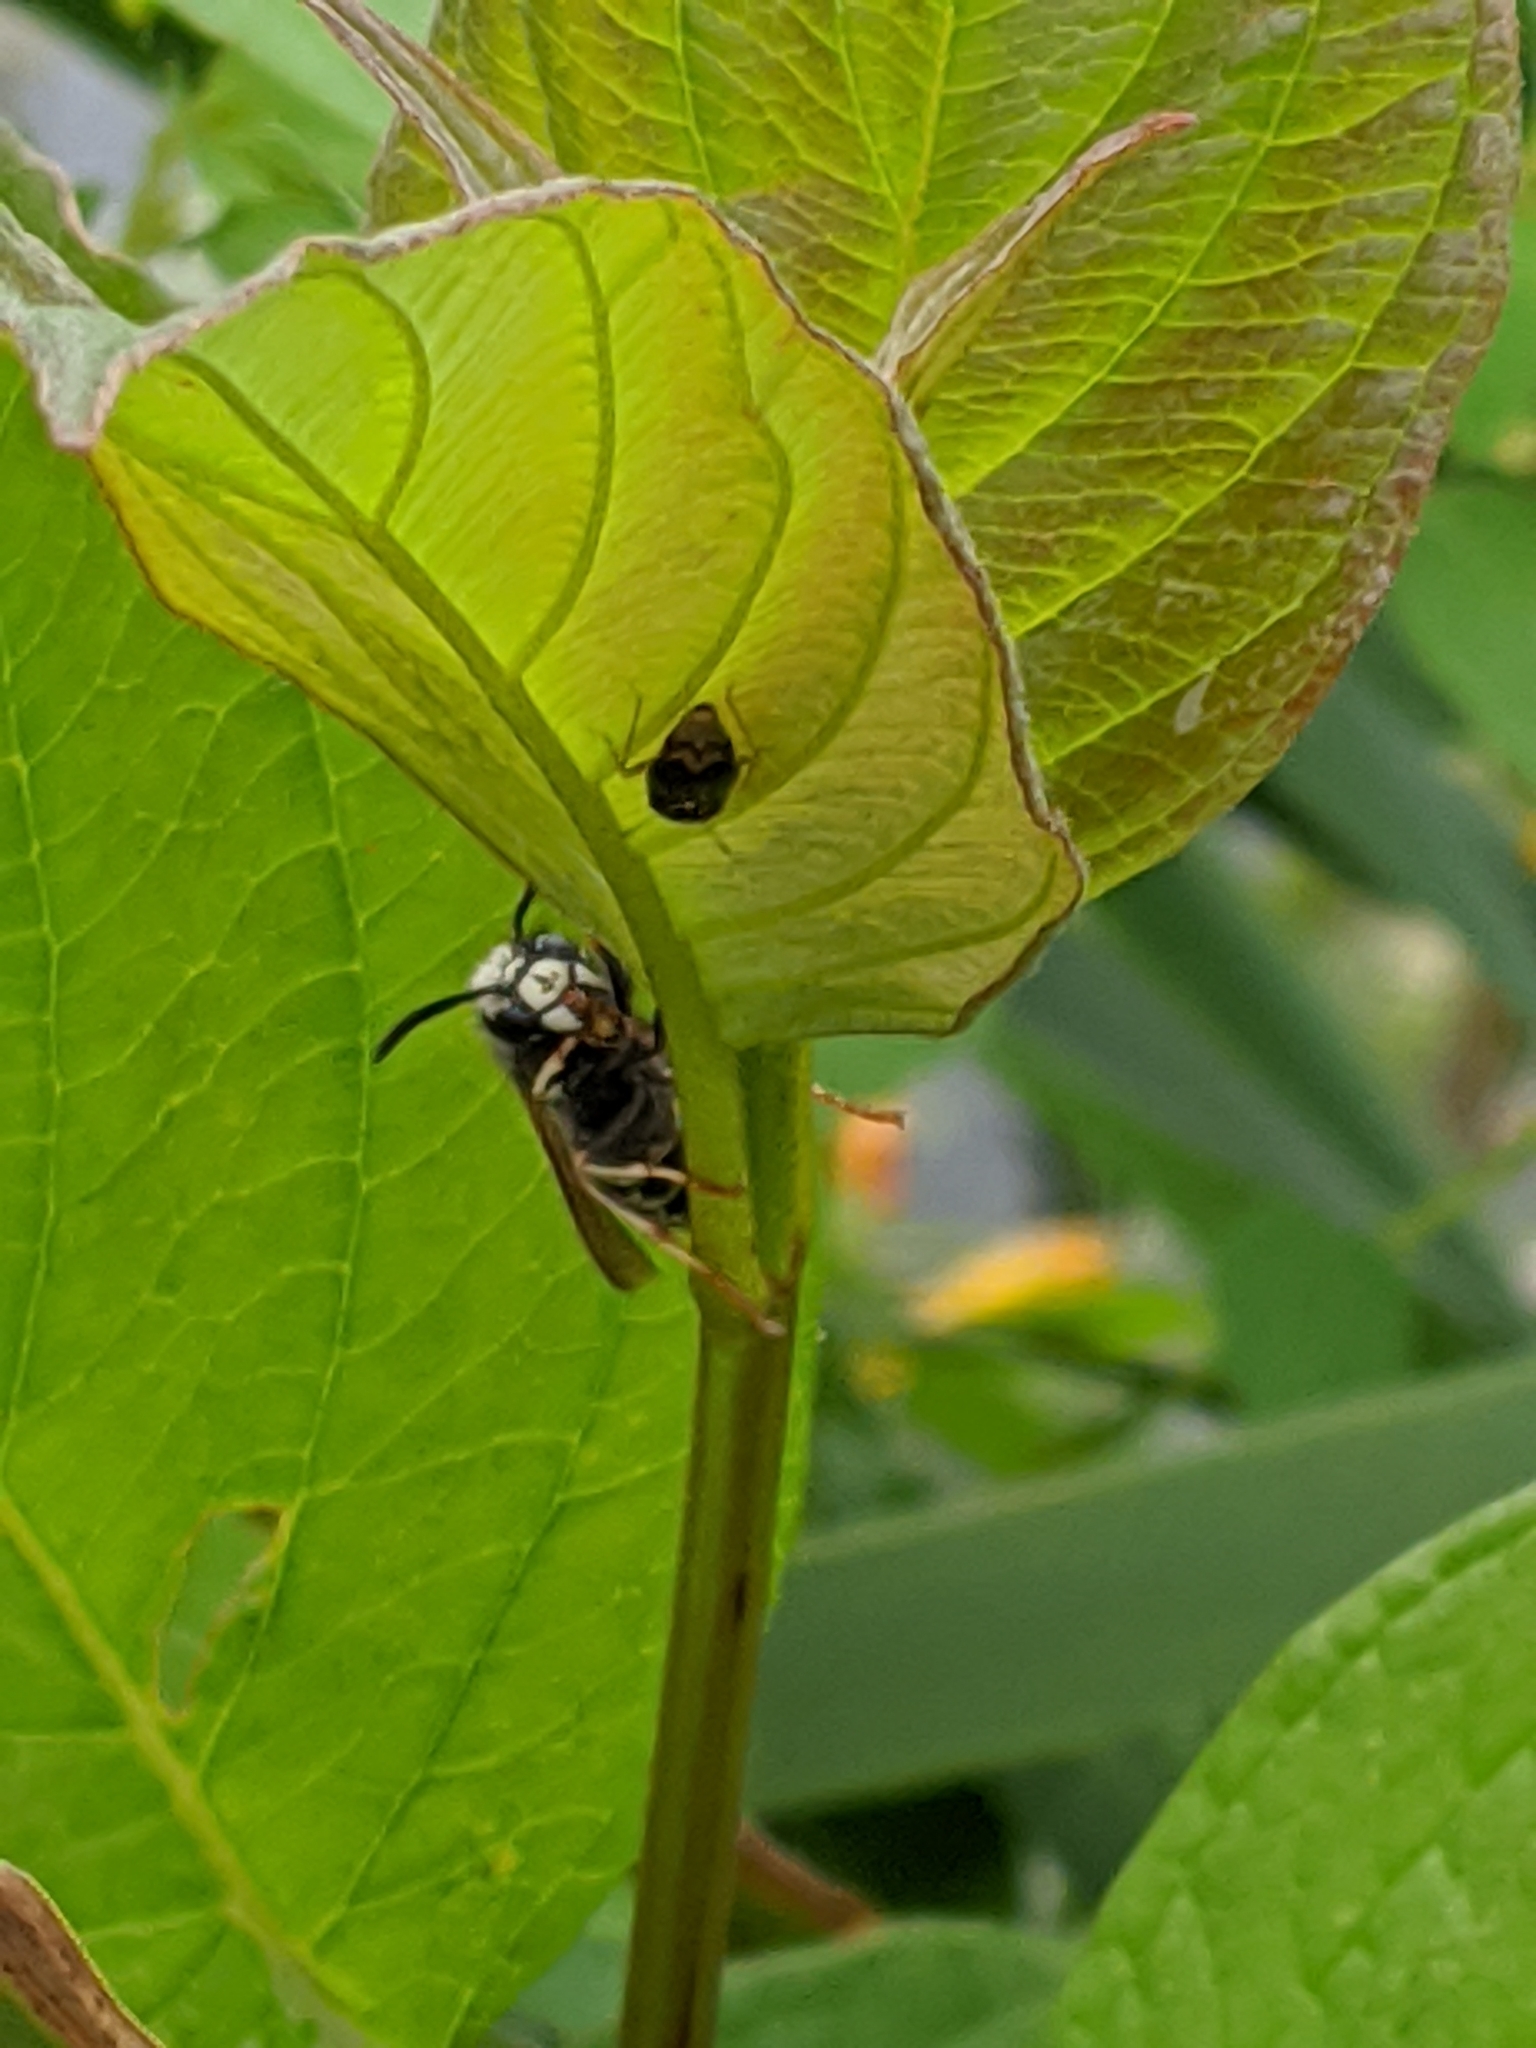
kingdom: Animalia
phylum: Arthropoda
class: Insecta
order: Hymenoptera
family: Vespidae
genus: Vespula
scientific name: Vespula consobrina
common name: Blackjacket
